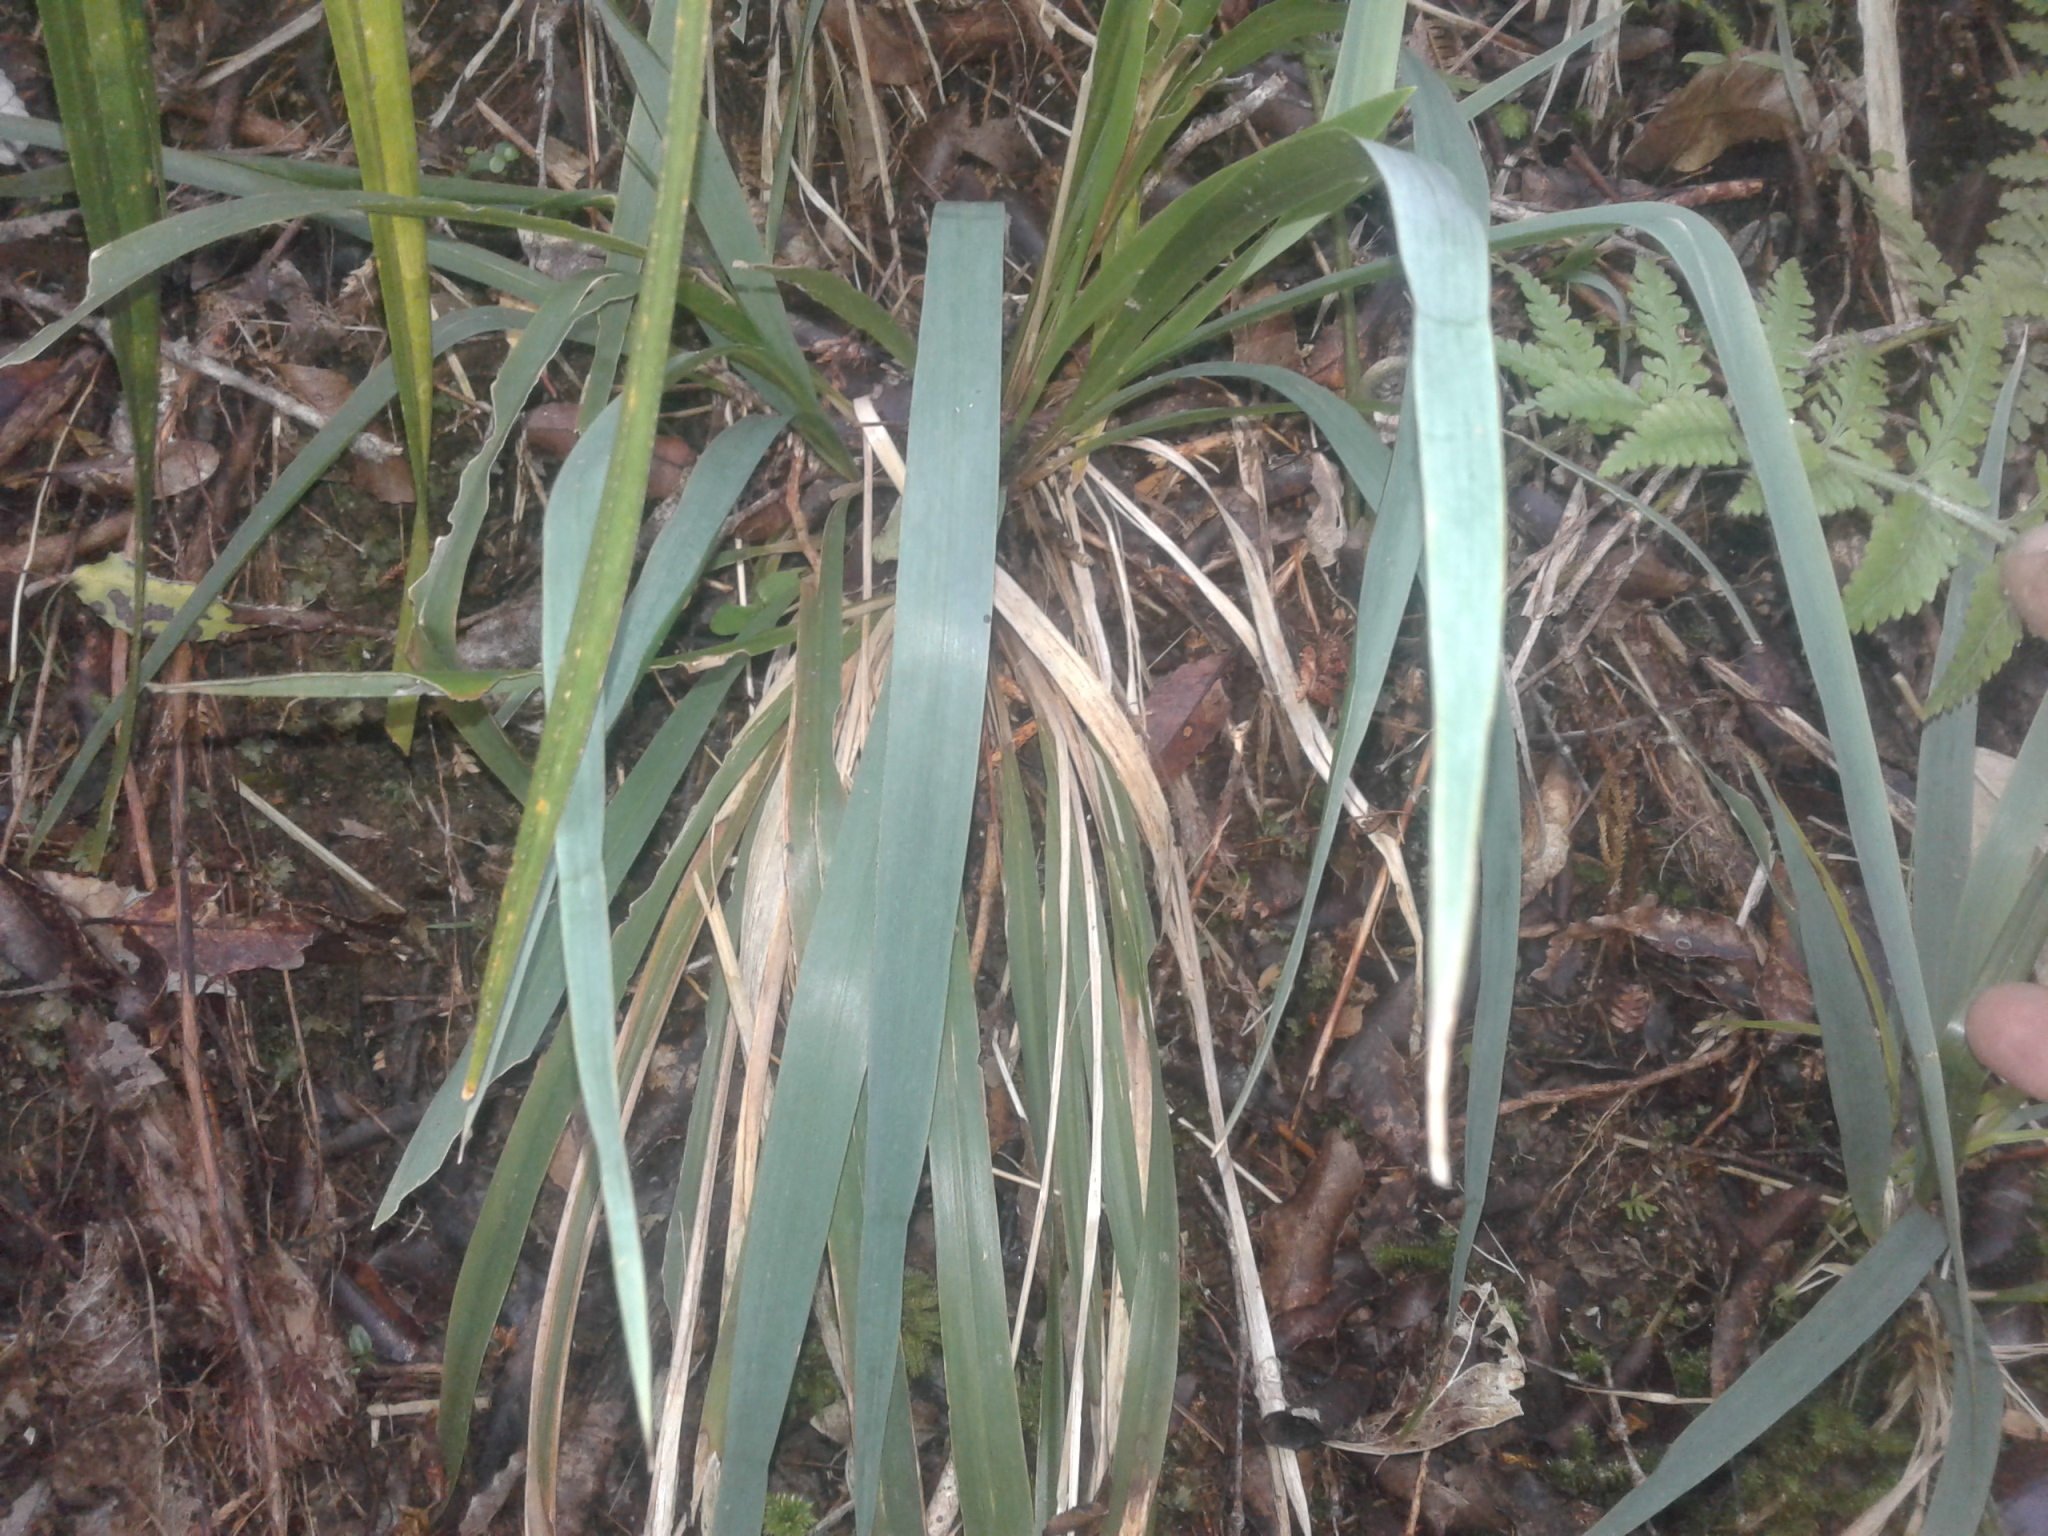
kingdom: Plantae
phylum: Tracheophyta
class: Liliopsida
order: Poales
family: Poaceae
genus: Ehrharta
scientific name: Ehrharta diplax
